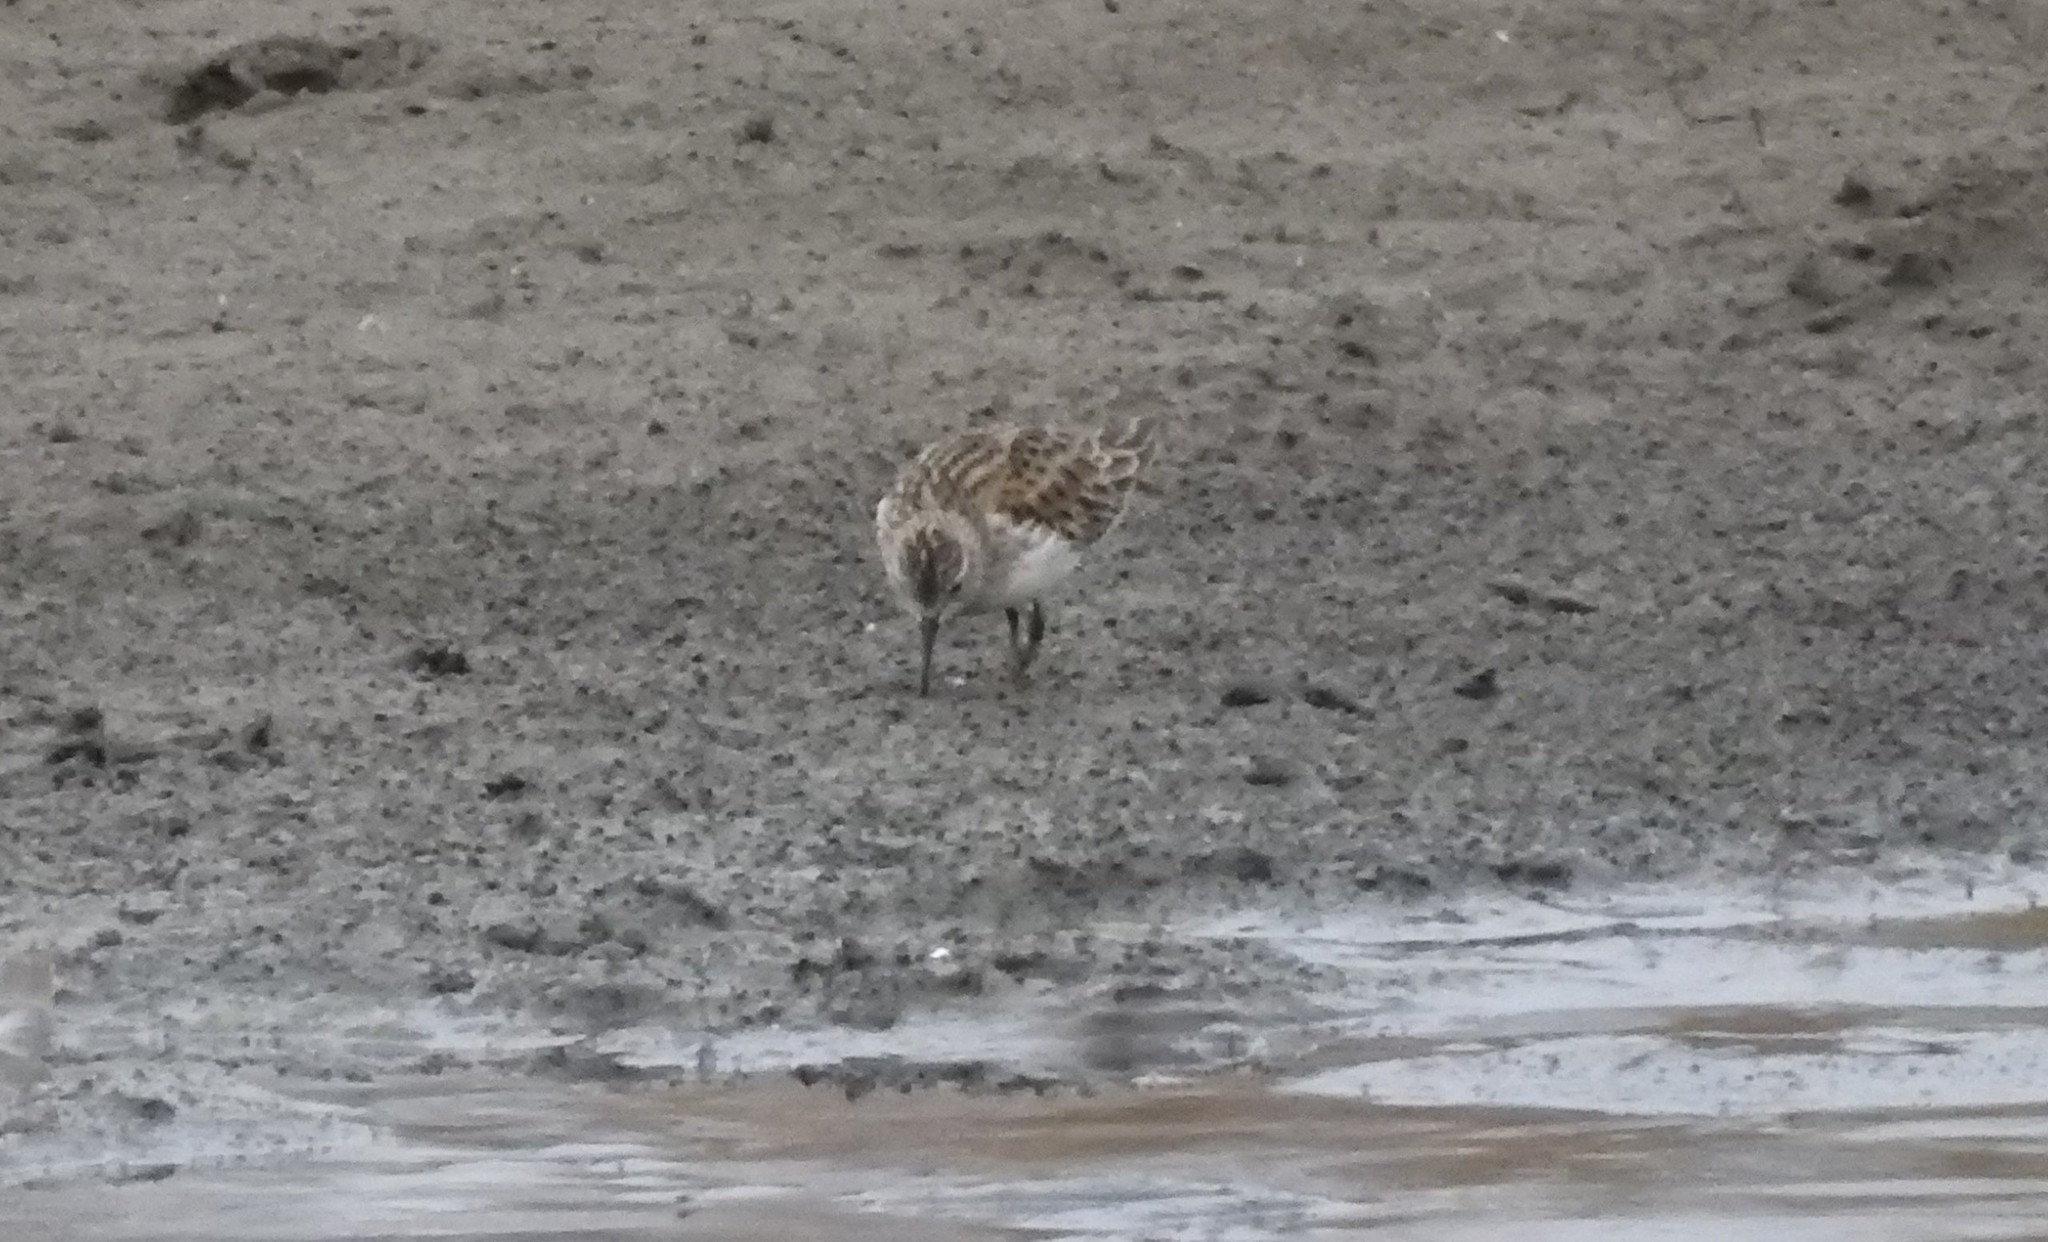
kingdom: Animalia
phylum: Chordata
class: Aves
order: Charadriiformes
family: Scolopacidae
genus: Calidris
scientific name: Calidris mauri
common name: Western sandpiper
